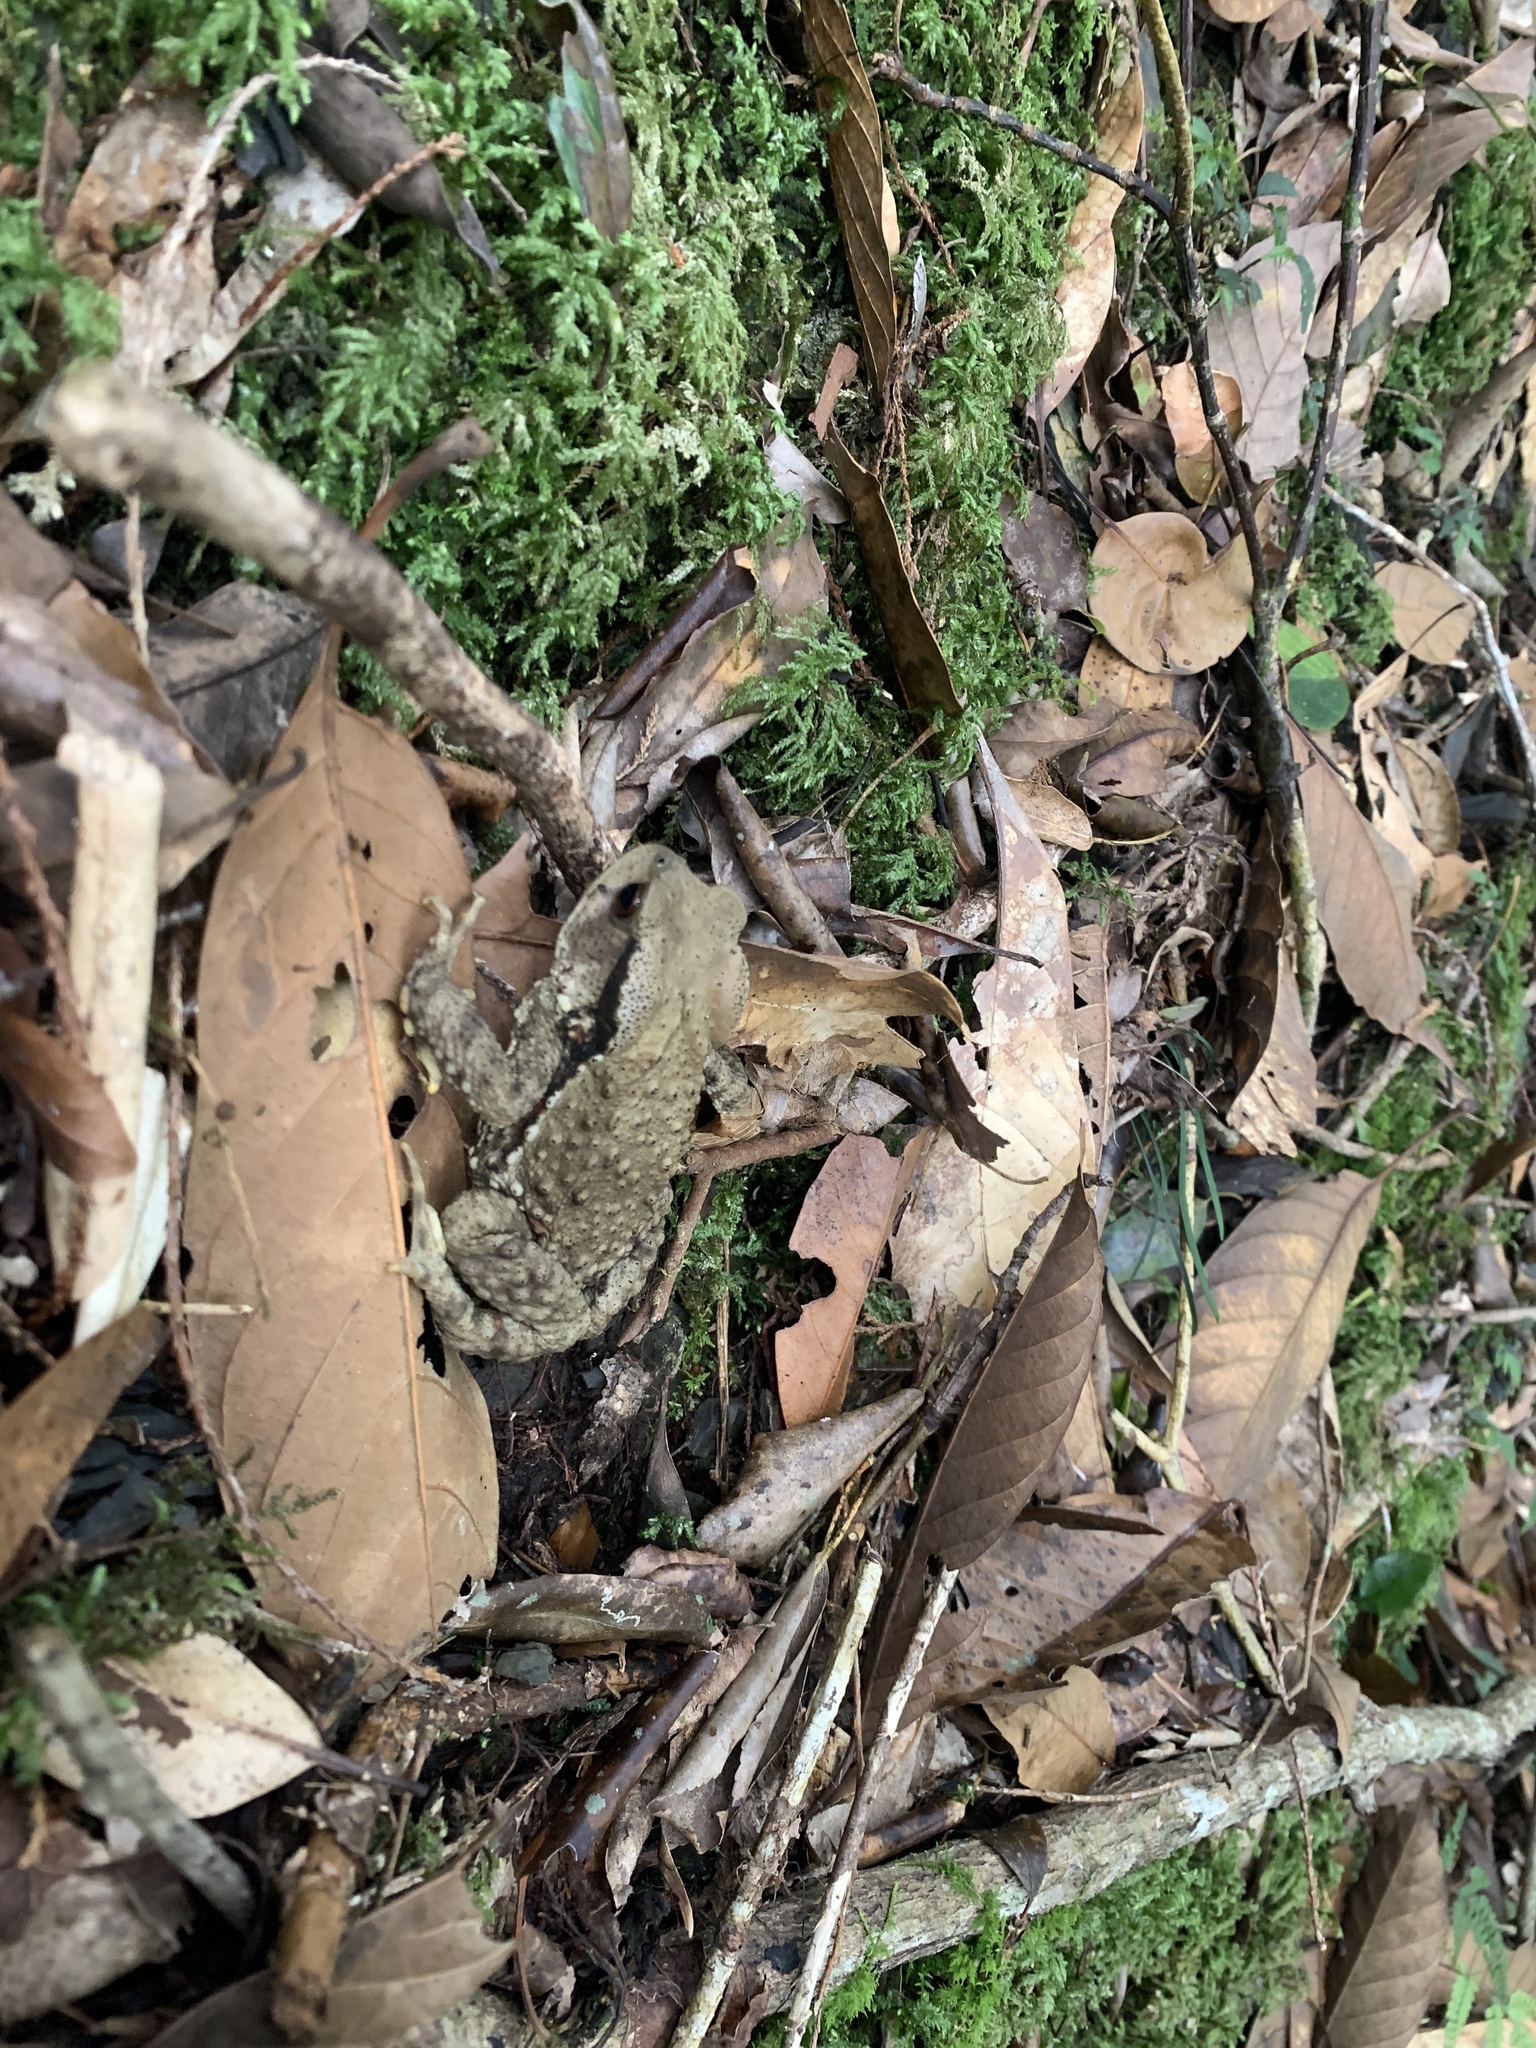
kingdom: Animalia
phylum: Chordata
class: Amphibia
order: Anura
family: Bufonidae
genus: Bufo
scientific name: Bufo bankorensis
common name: Bankor toad
